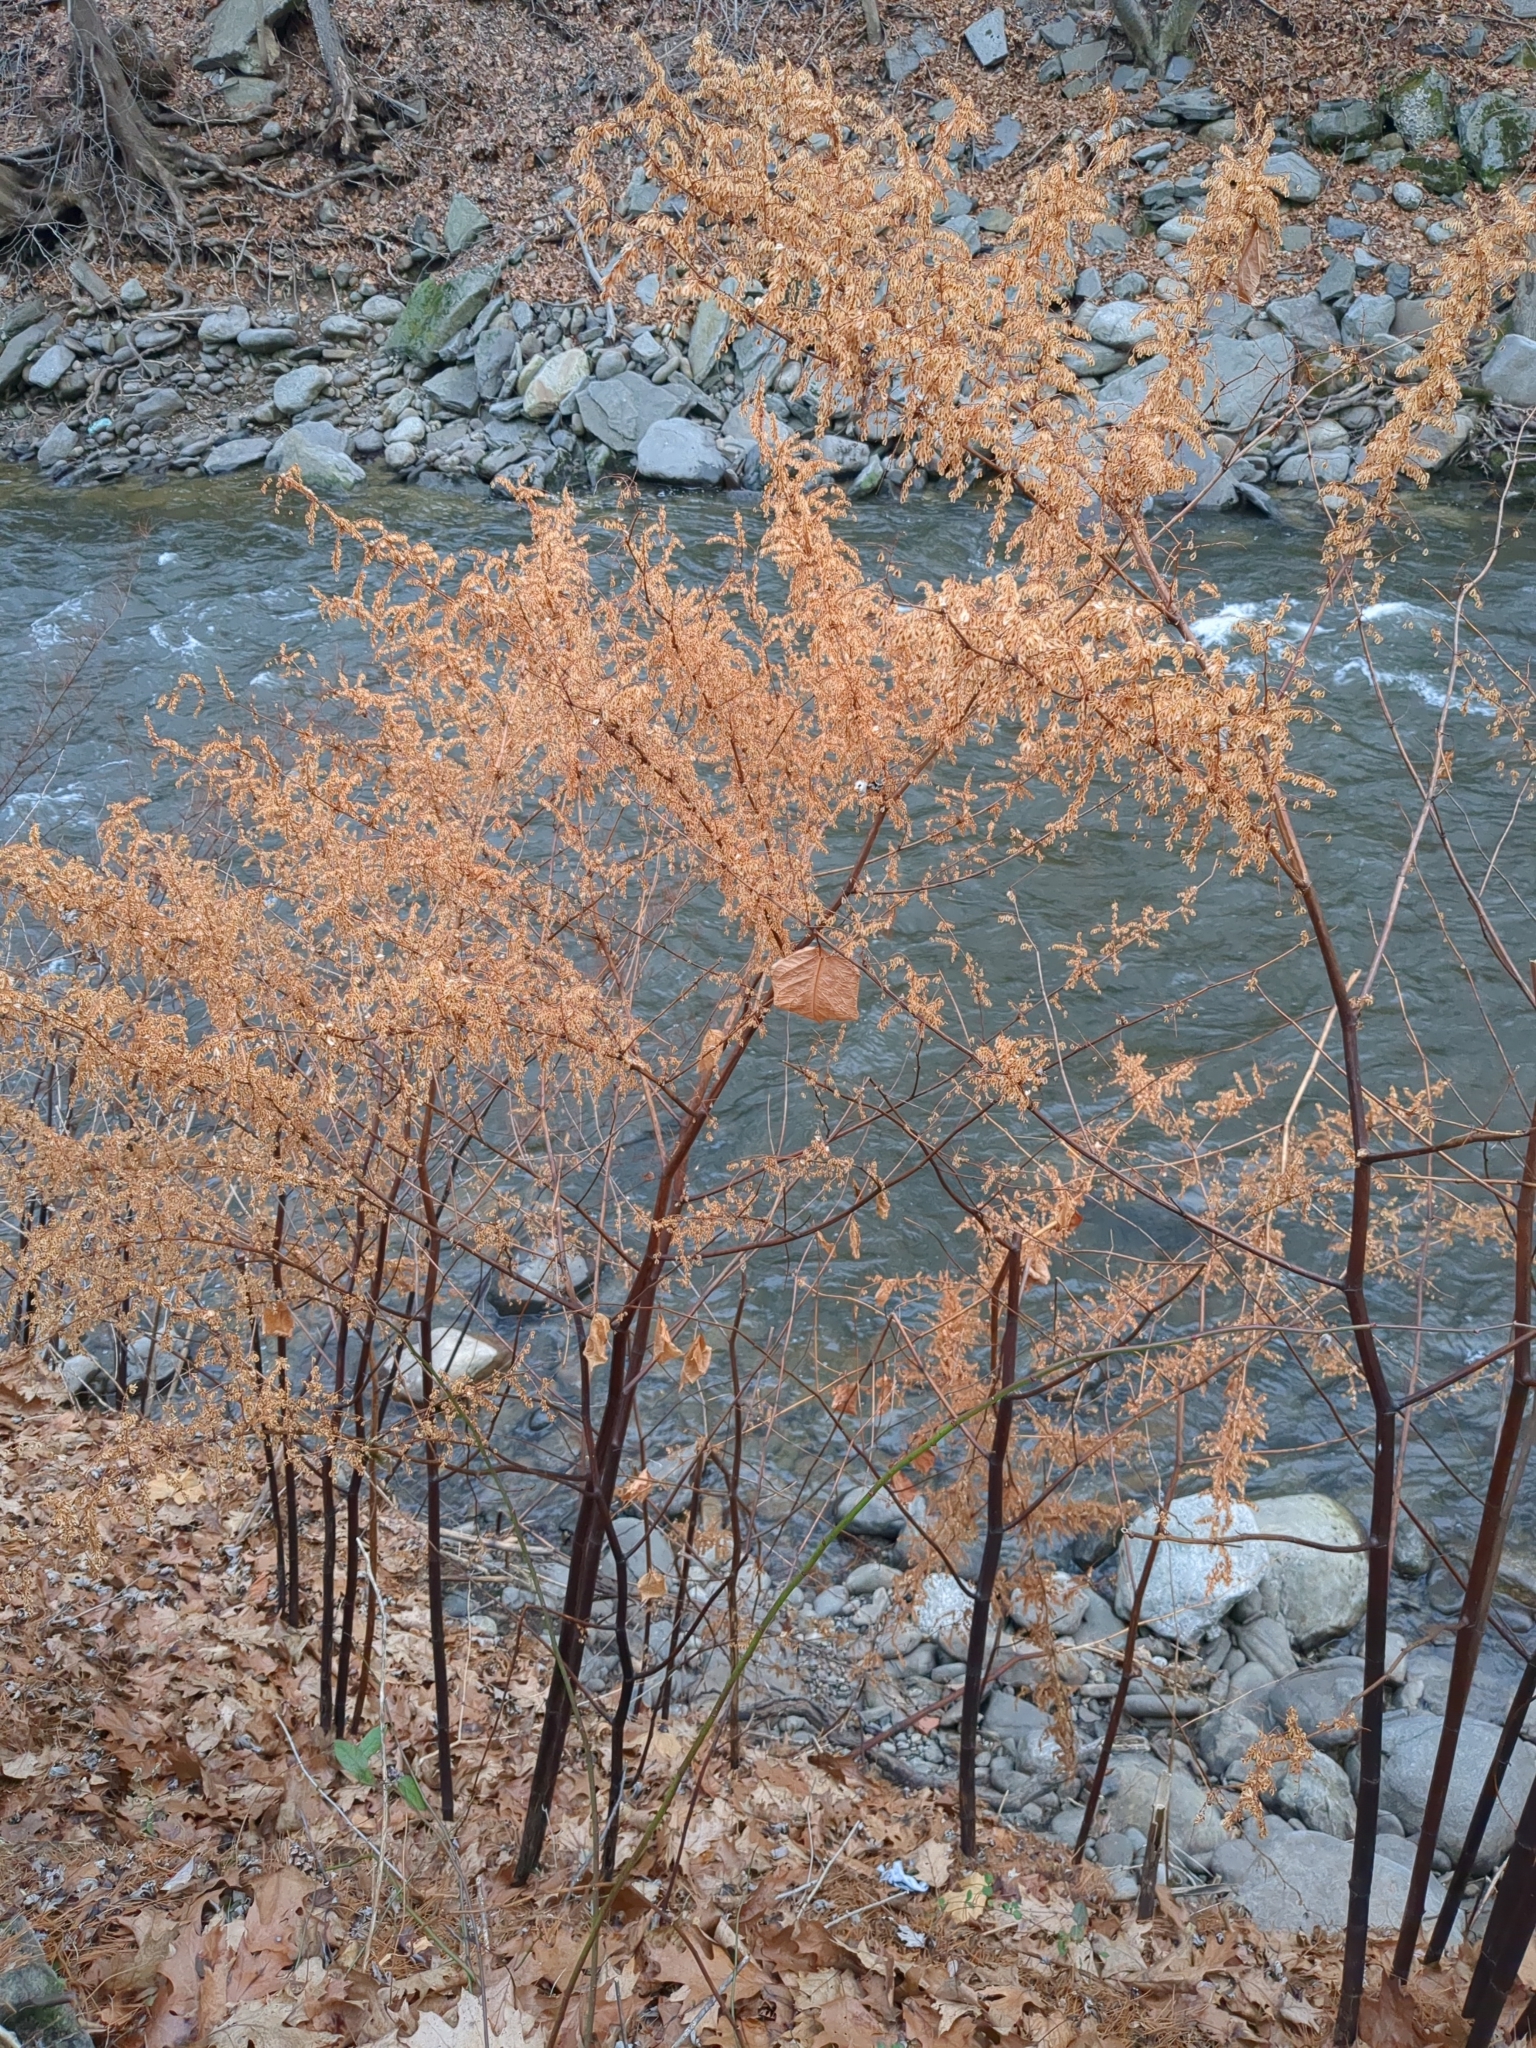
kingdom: Plantae
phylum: Tracheophyta
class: Magnoliopsida
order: Caryophyllales
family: Polygonaceae
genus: Reynoutria
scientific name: Reynoutria japonica
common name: Japanese knotweed
